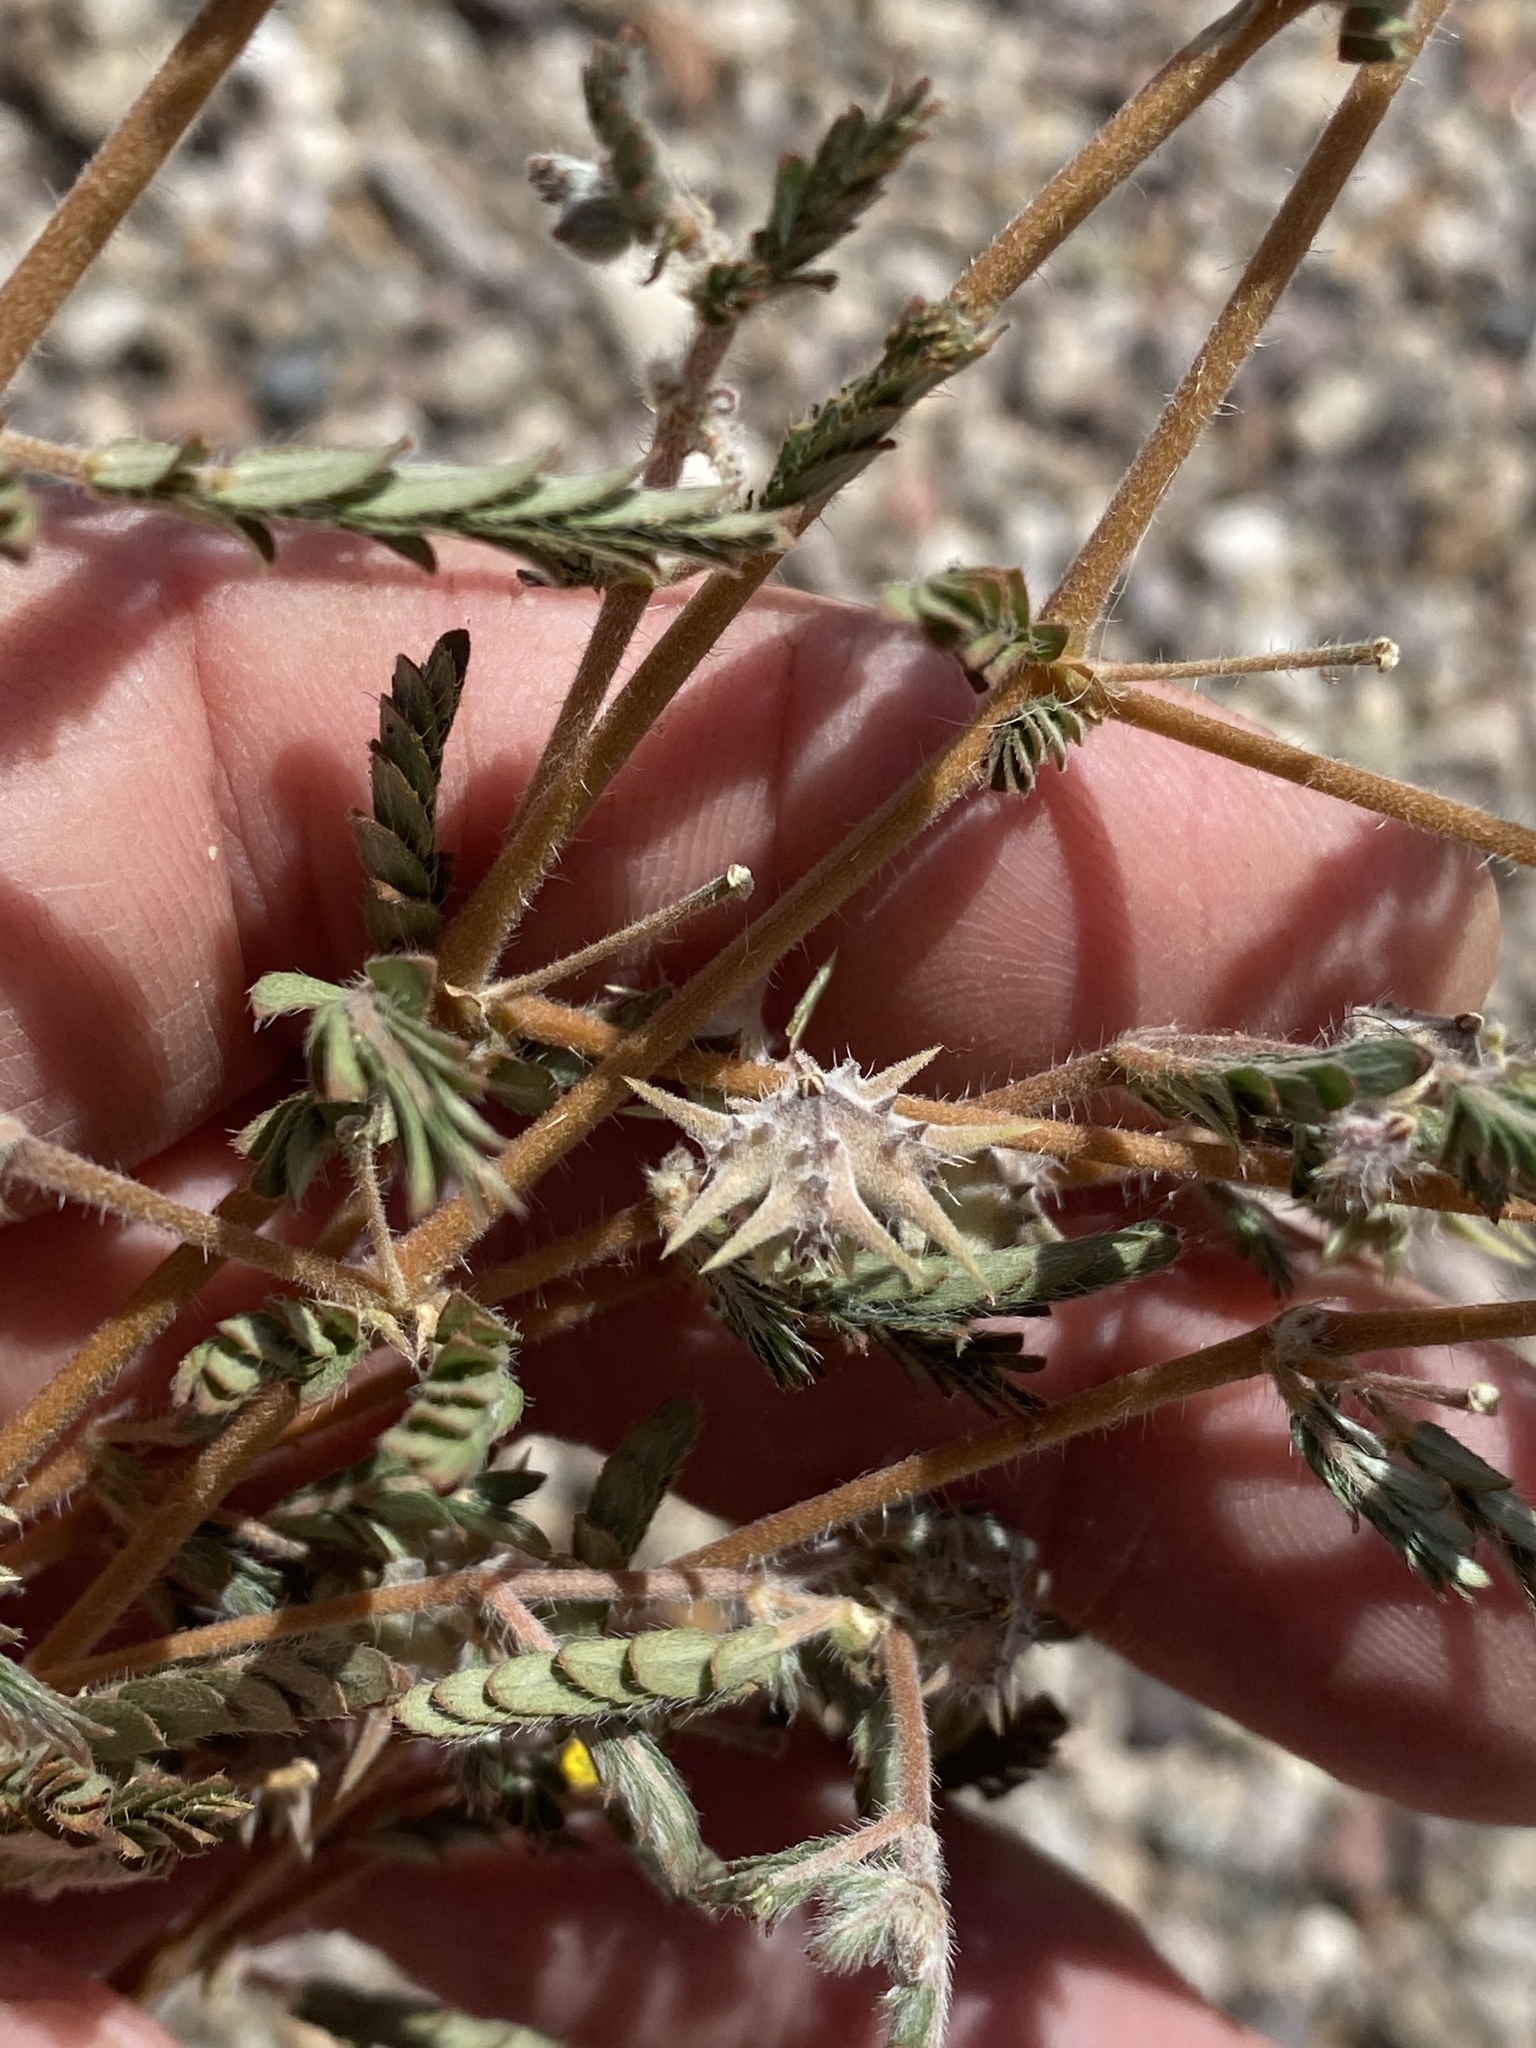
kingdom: Plantae
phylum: Tracheophyta
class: Magnoliopsida
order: Zygophyllales
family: Zygophyllaceae
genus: Tribulus
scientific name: Tribulus terrestris
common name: Puncturevine
